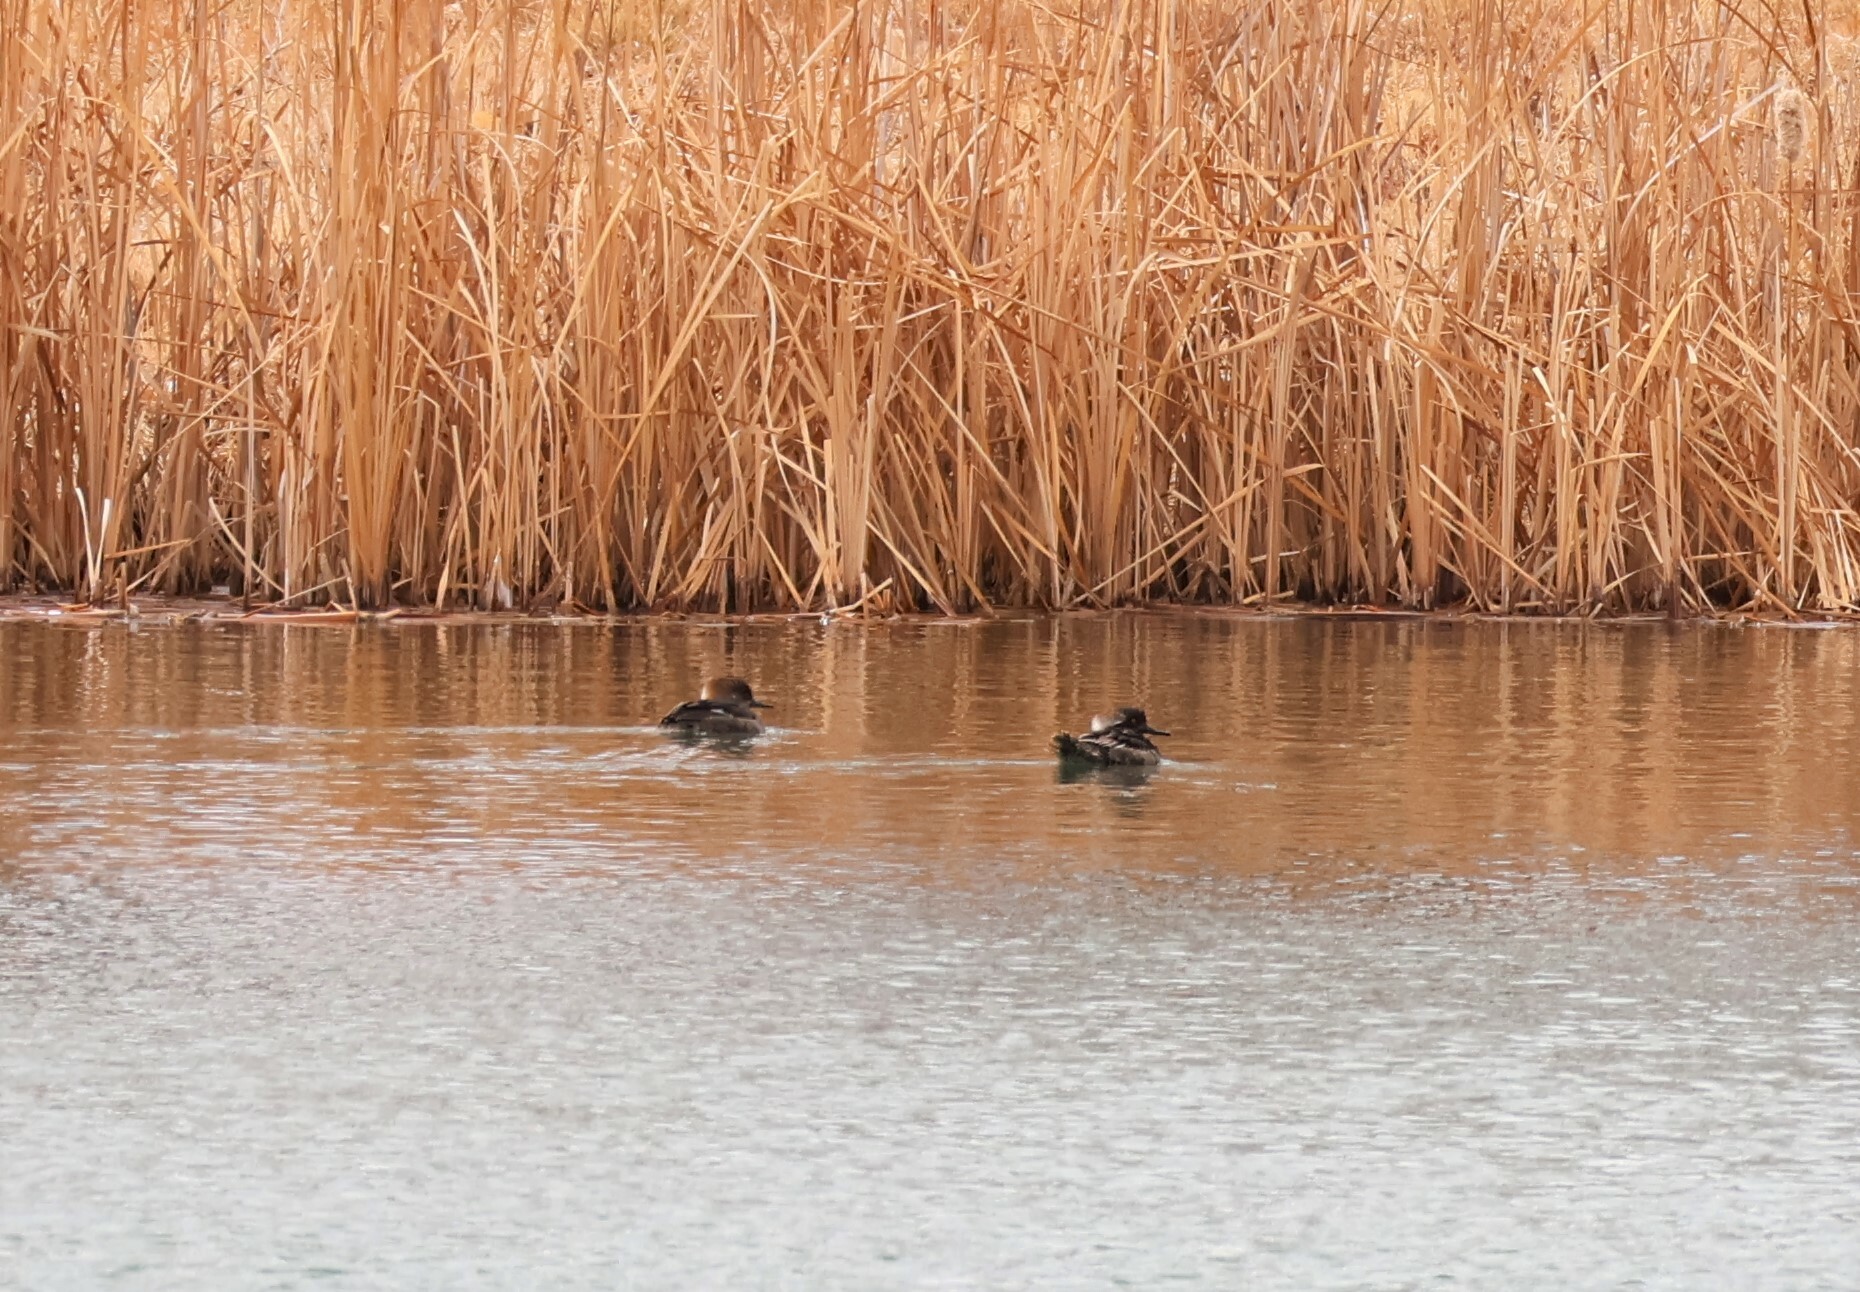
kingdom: Animalia
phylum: Chordata
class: Aves
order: Anseriformes
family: Anatidae
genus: Lophodytes
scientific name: Lophodytes cucullatus
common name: Hooded merganser
